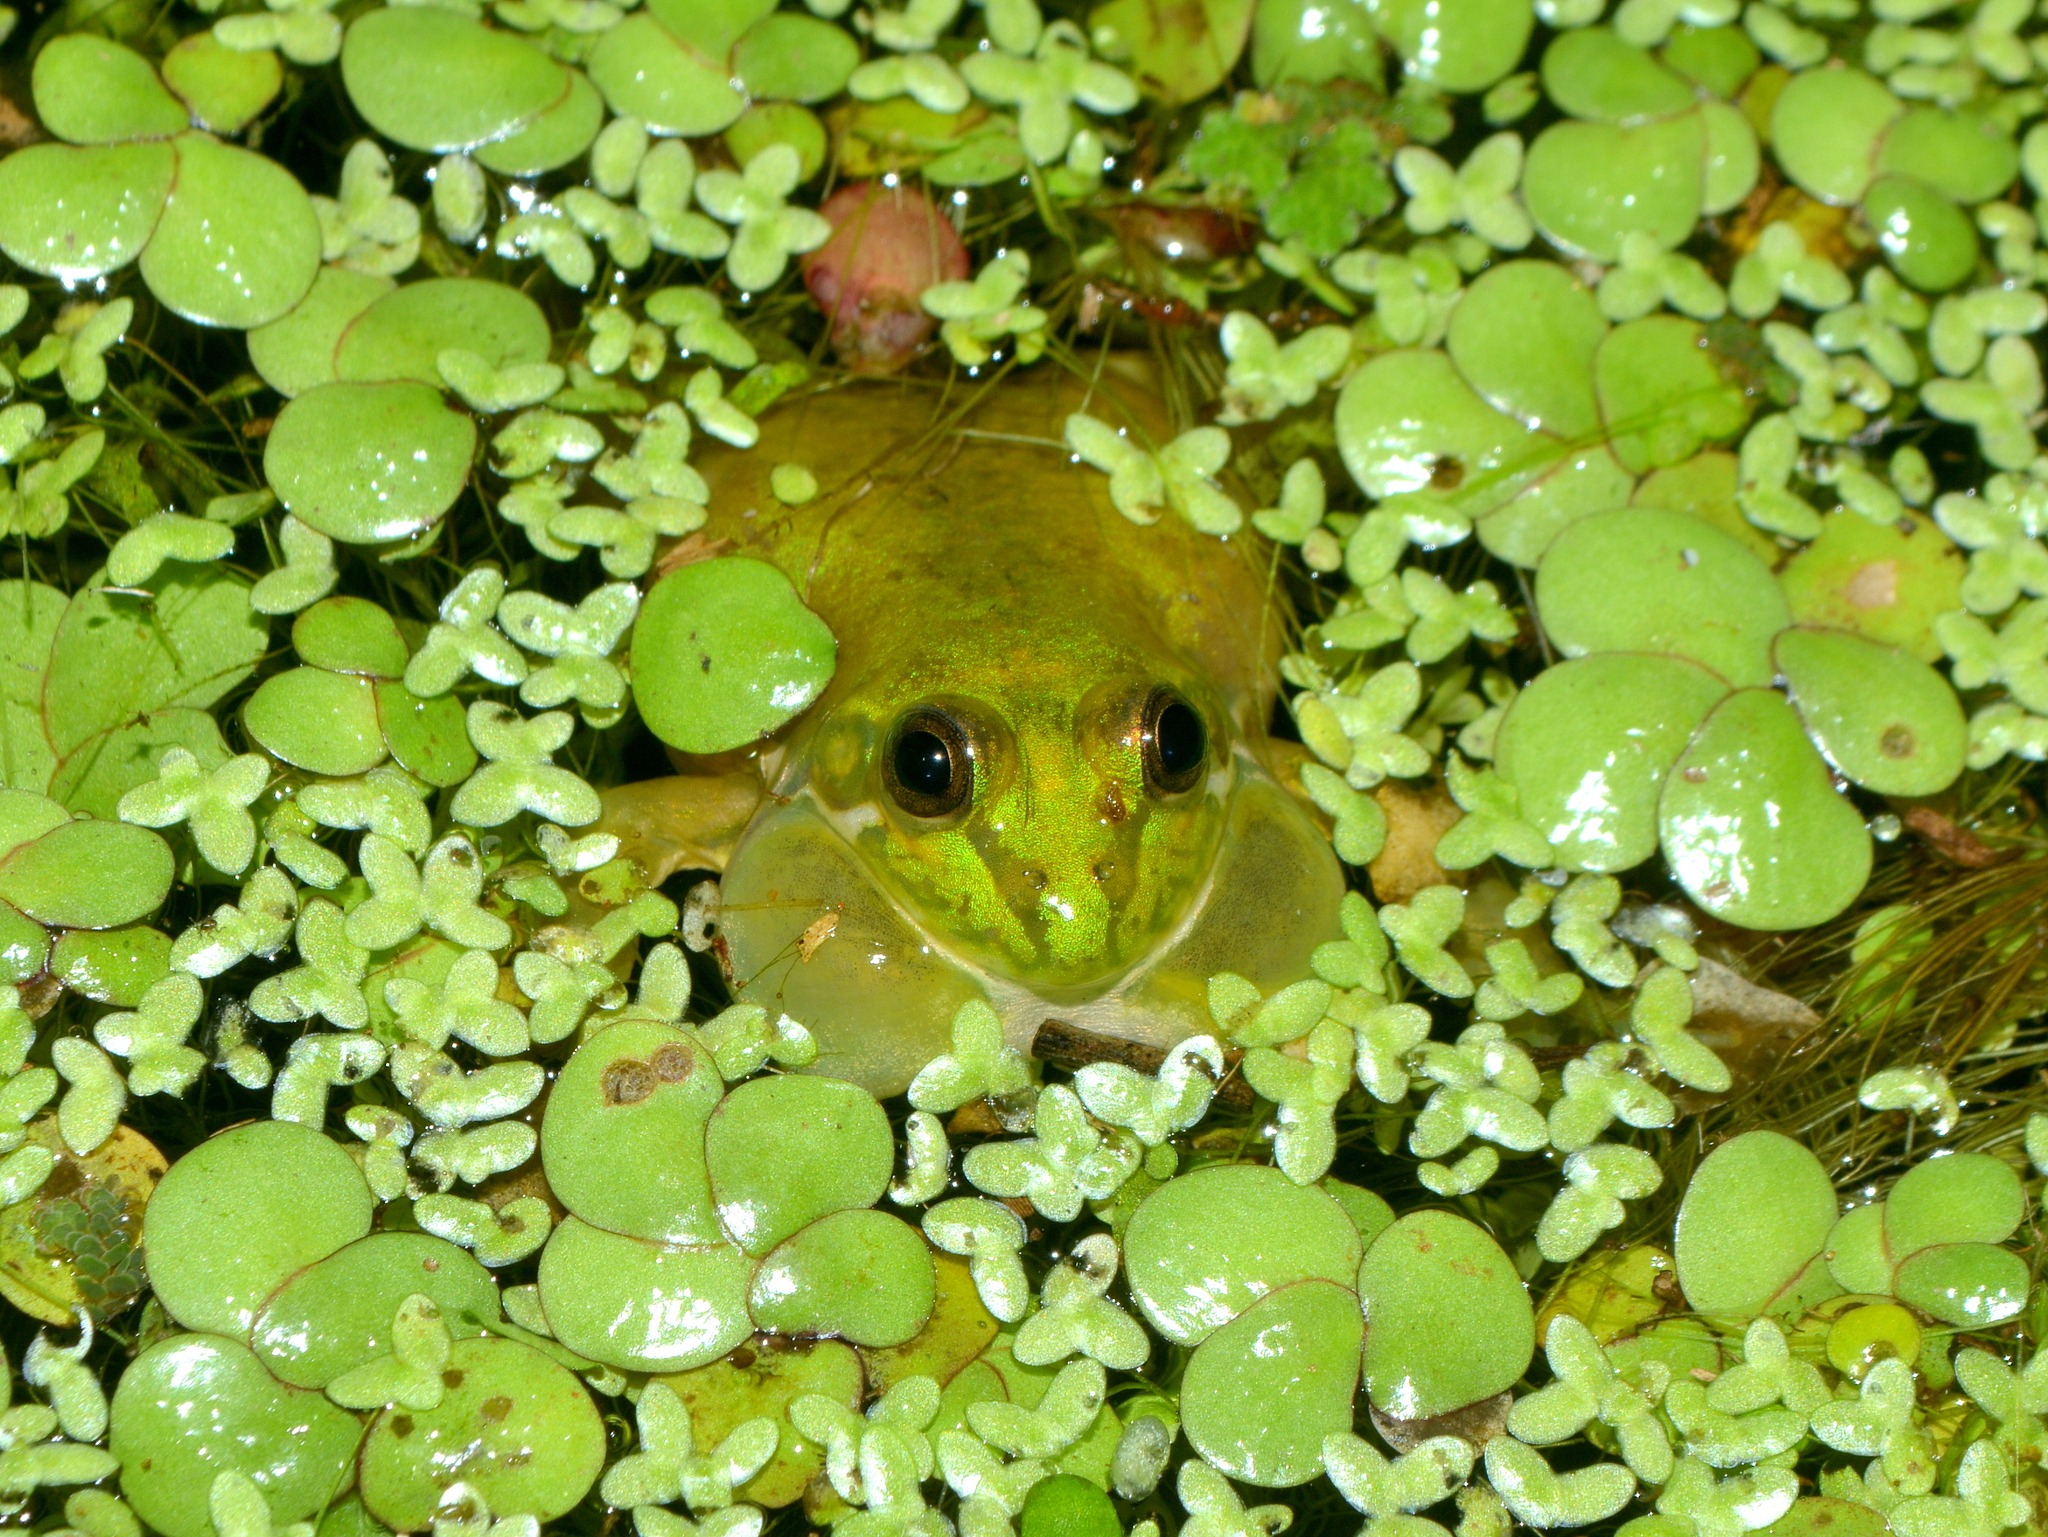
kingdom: Animalia
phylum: Chordata
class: Amphibia
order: Anura
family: Hylidae
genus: Pseudis
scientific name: Pseudis minuta
